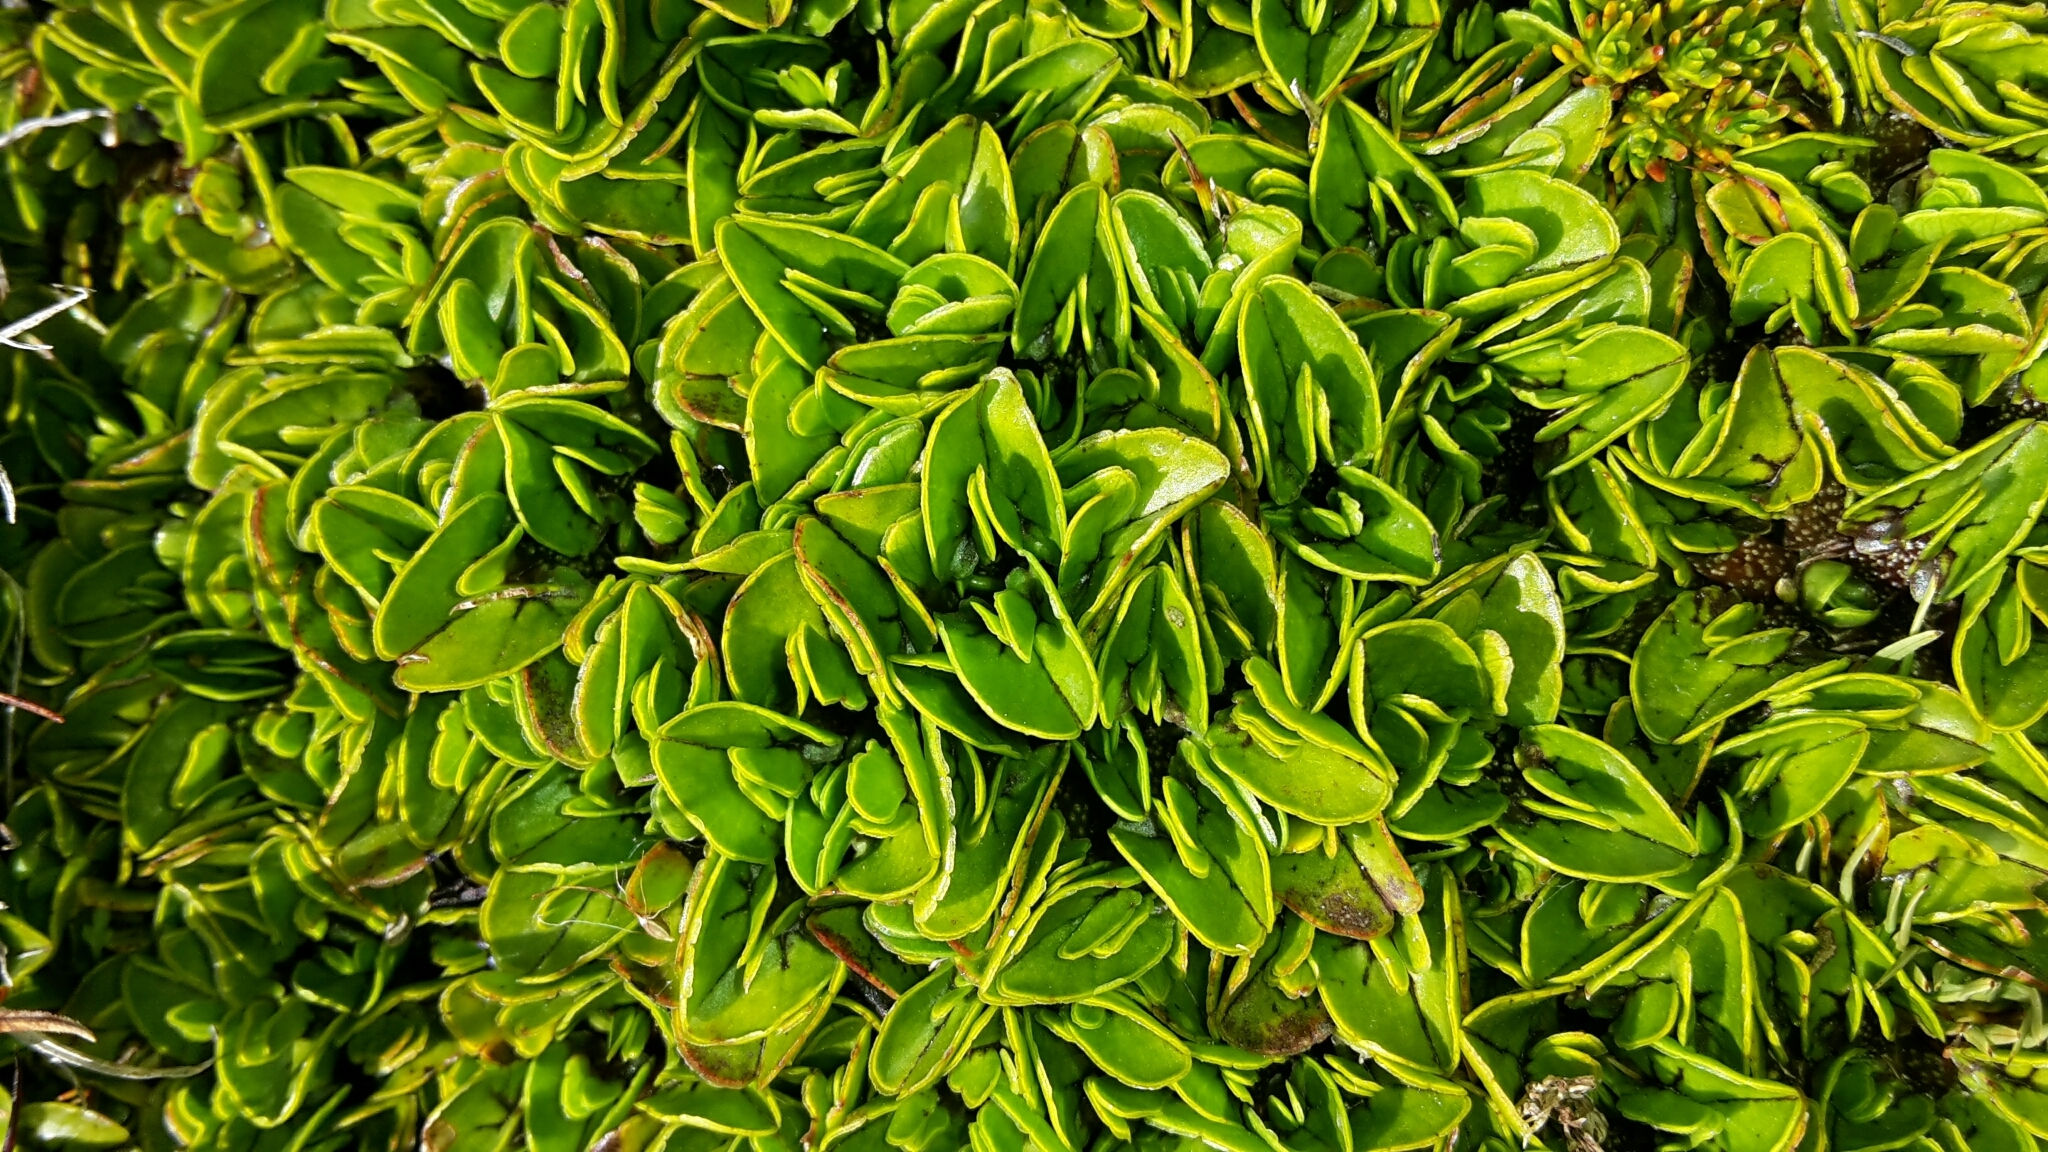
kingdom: Plantae
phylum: Tracheophyta
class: Magnoliopsida
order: Ranunculales
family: Ranunculaceae
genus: Caltha
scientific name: Caltha obtusa
